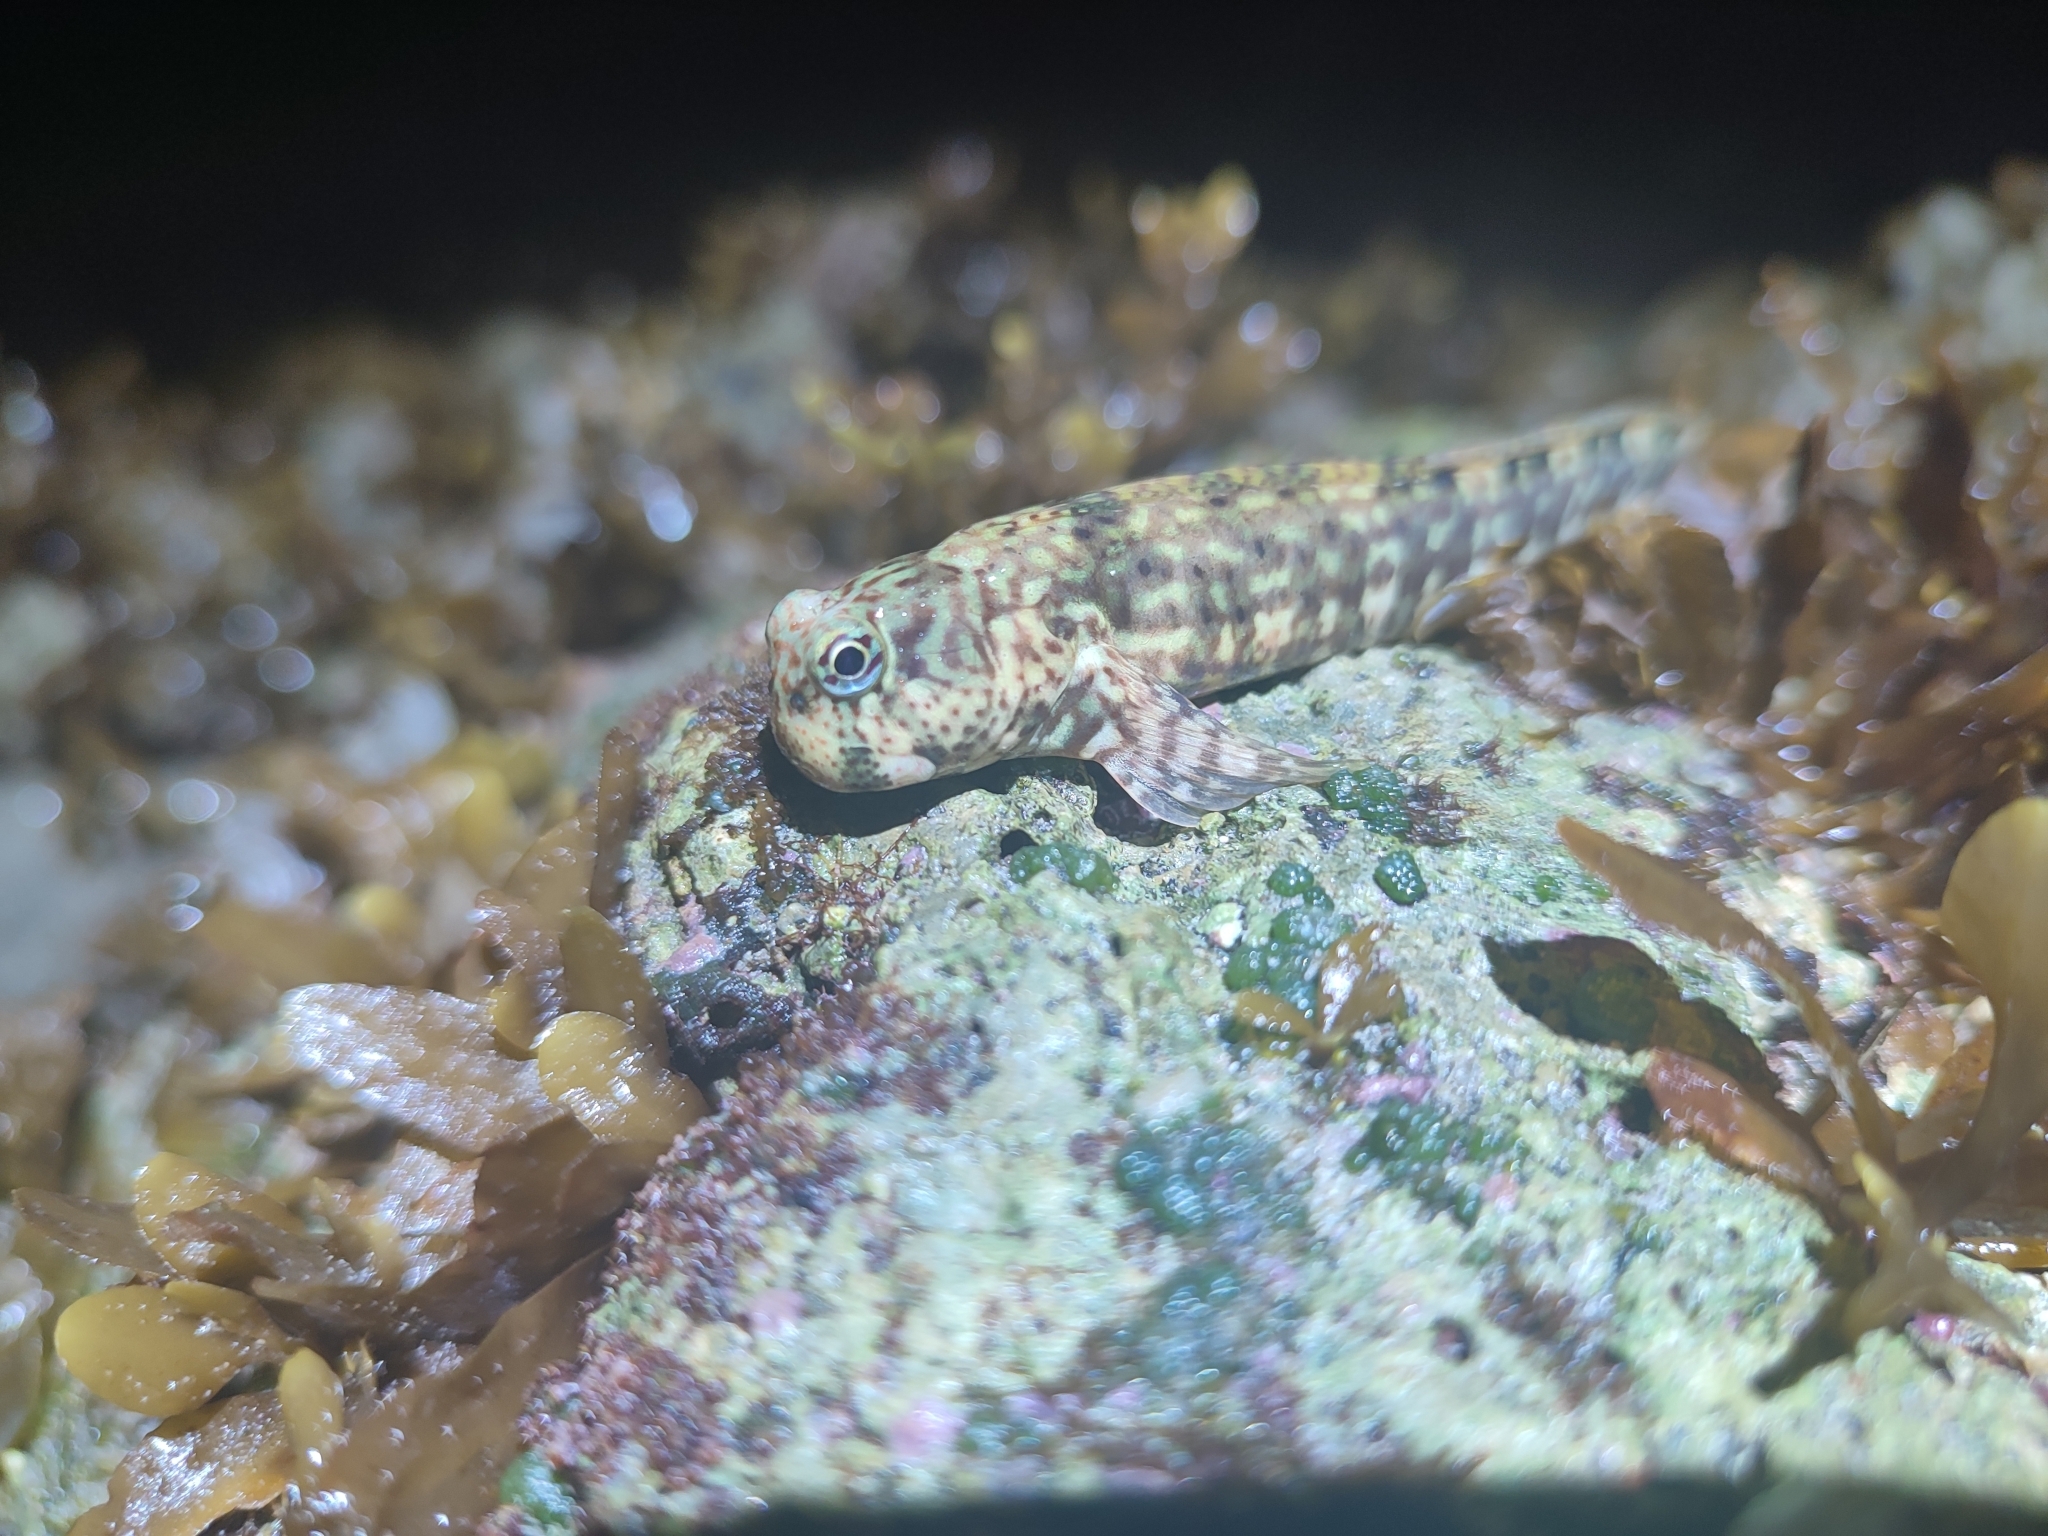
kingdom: Animalia
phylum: Chordata
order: Perciformes
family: Blenniidae
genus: Istiblennius
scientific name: Istiblennius dussumieri
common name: Dussumier's rockskipper
